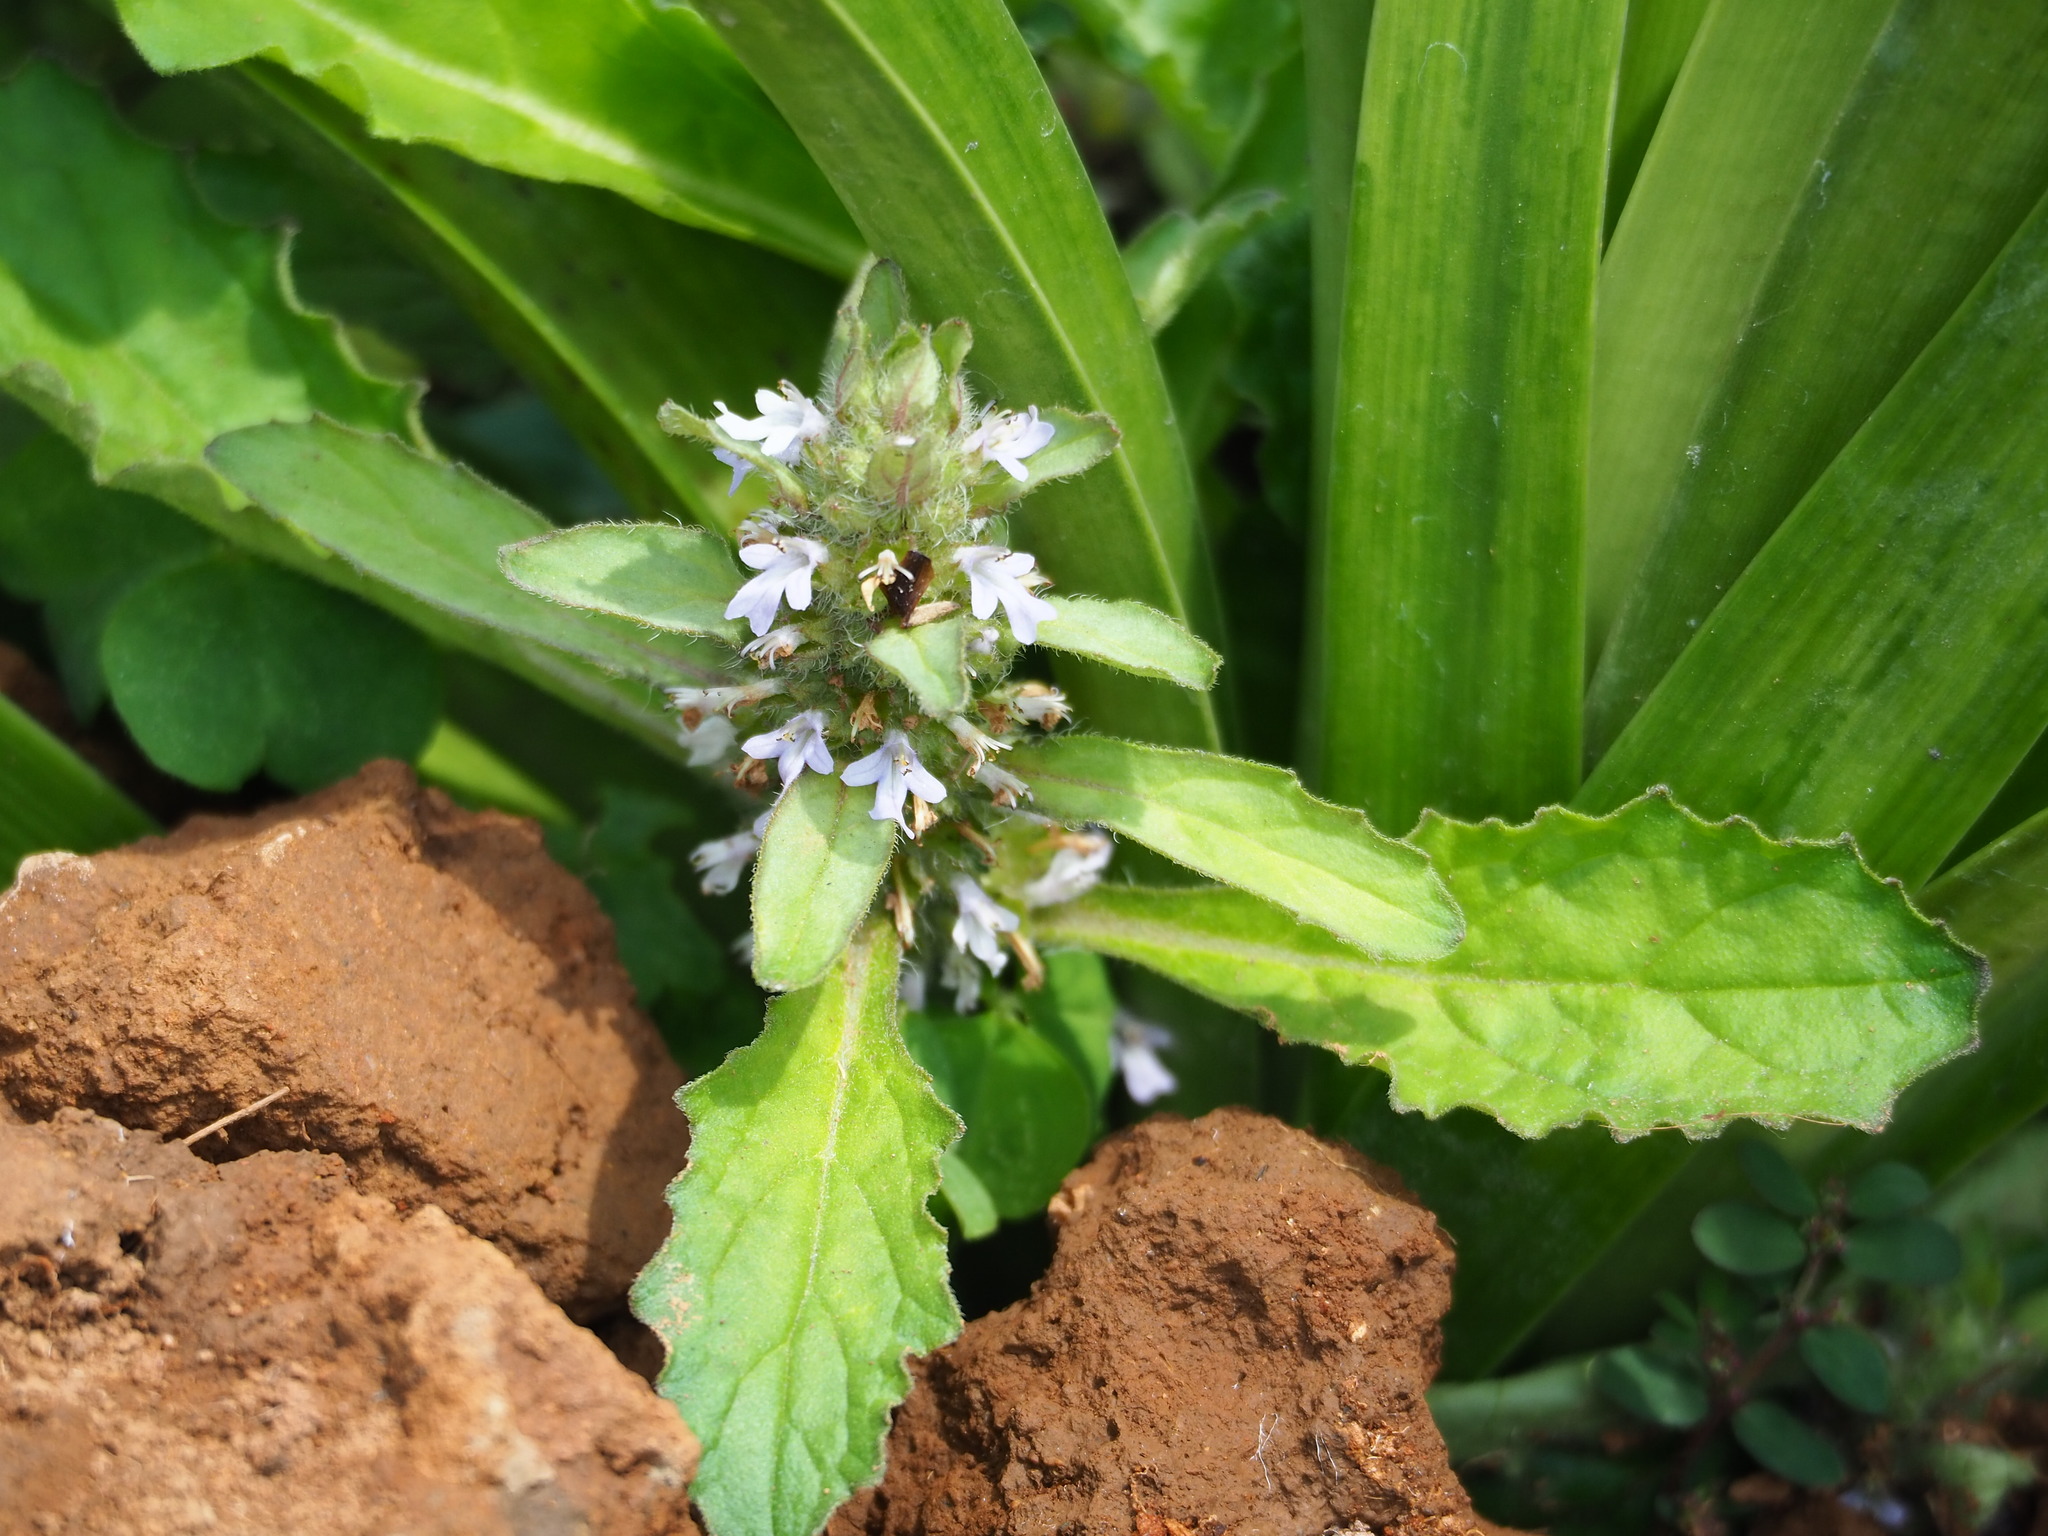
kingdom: Plantae
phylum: Tracheophyta
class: Magnoliopsida
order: Lamiales
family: Lamiaceae
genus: Ajuga
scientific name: Ajuga nipponensis
